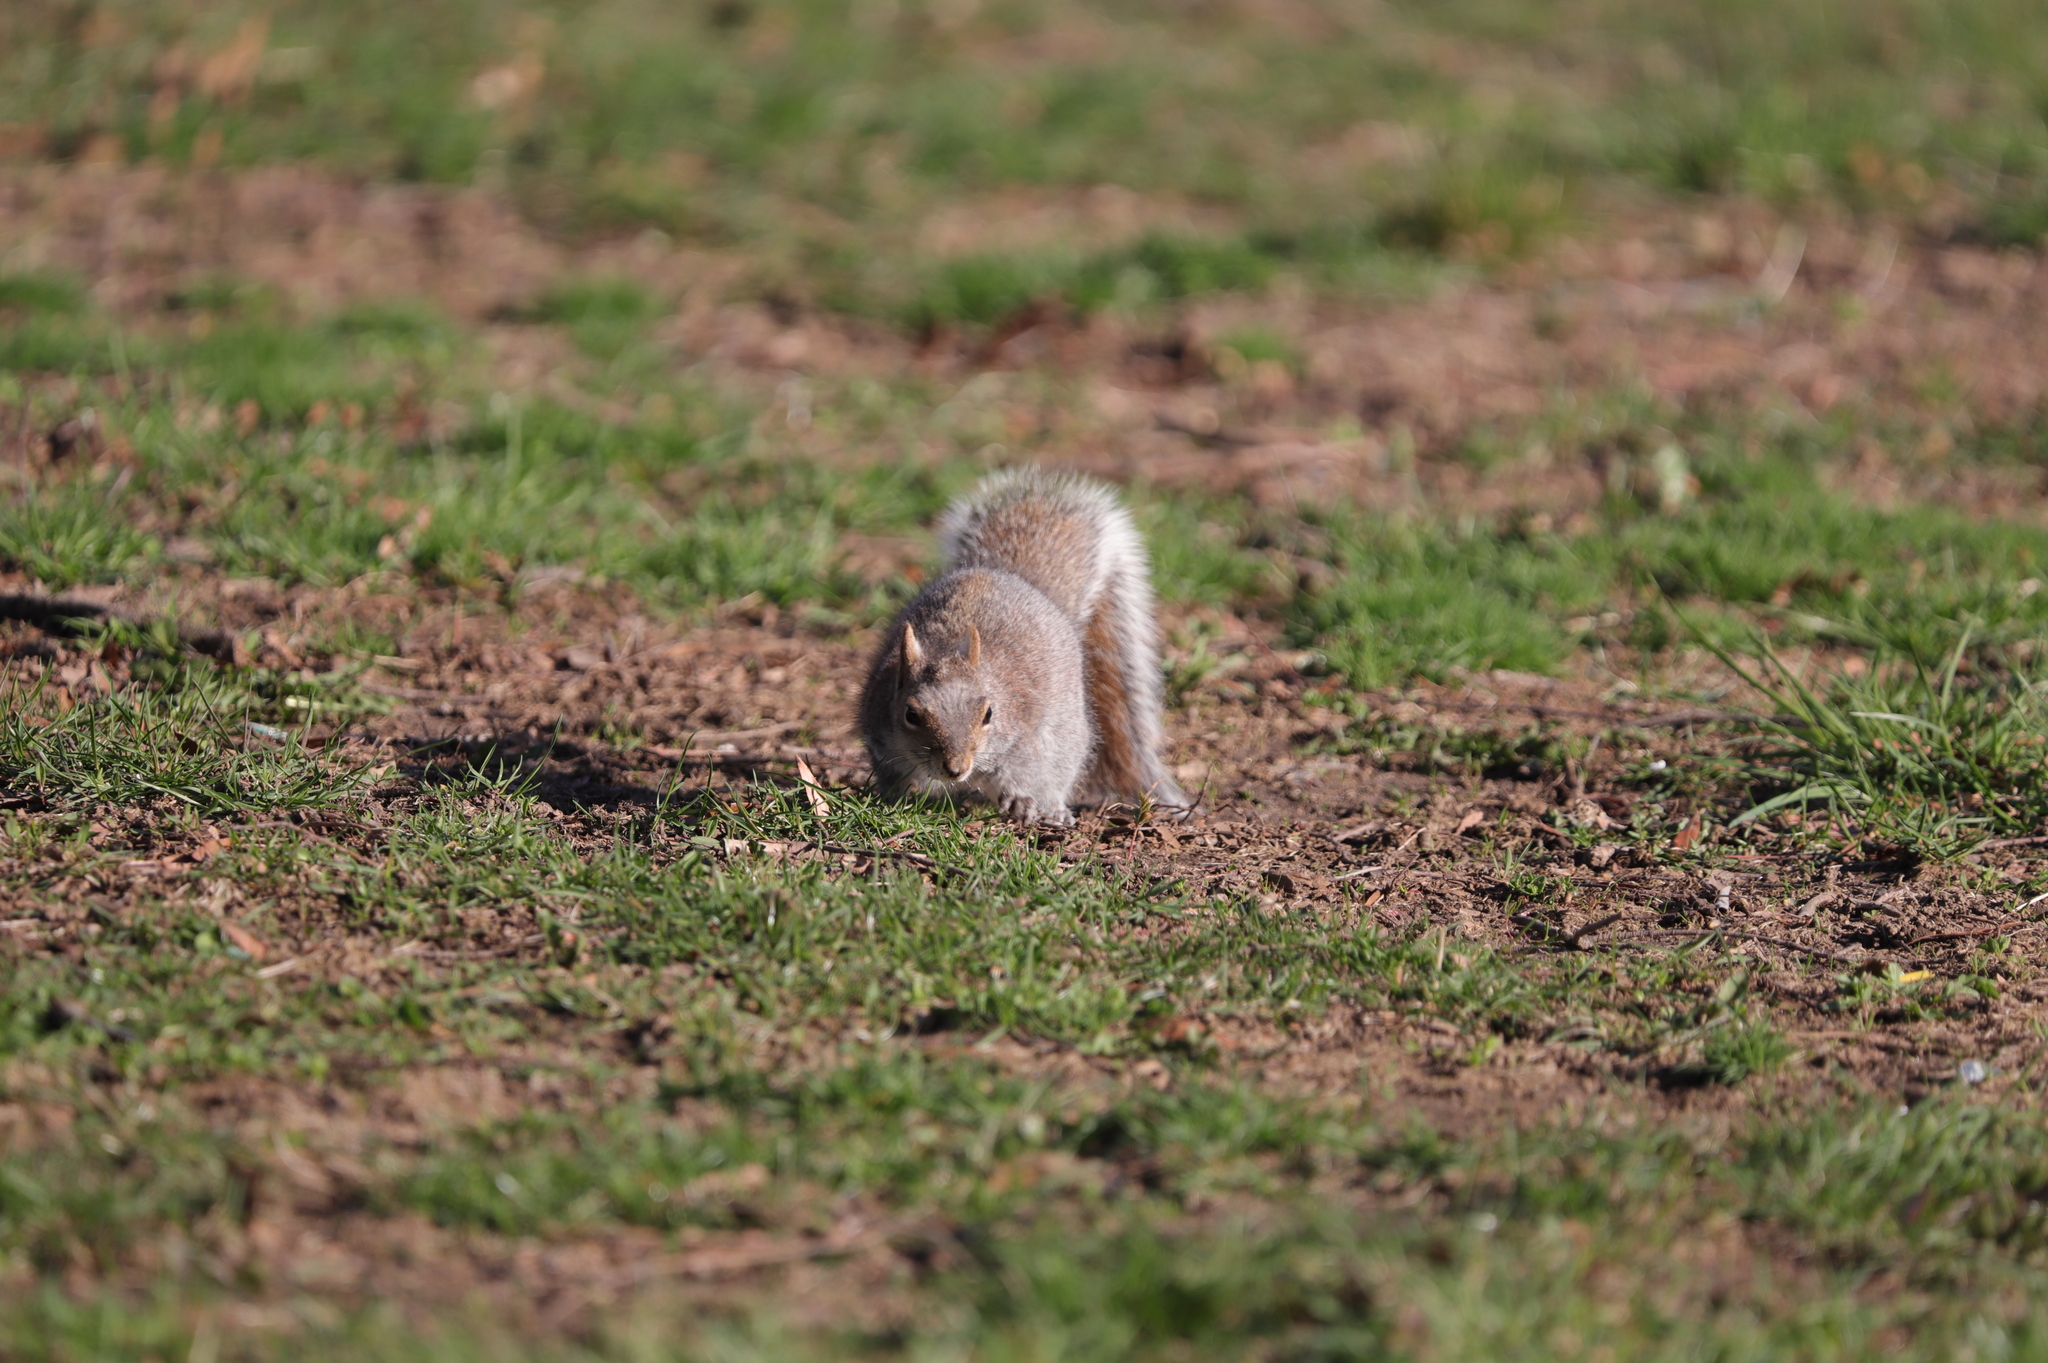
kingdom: Animalia
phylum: Chordata
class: Mammalia
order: Rodentia
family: Sciuridae
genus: Sciurus
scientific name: Sciurus carolinensis
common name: Eastern gray squirrel
